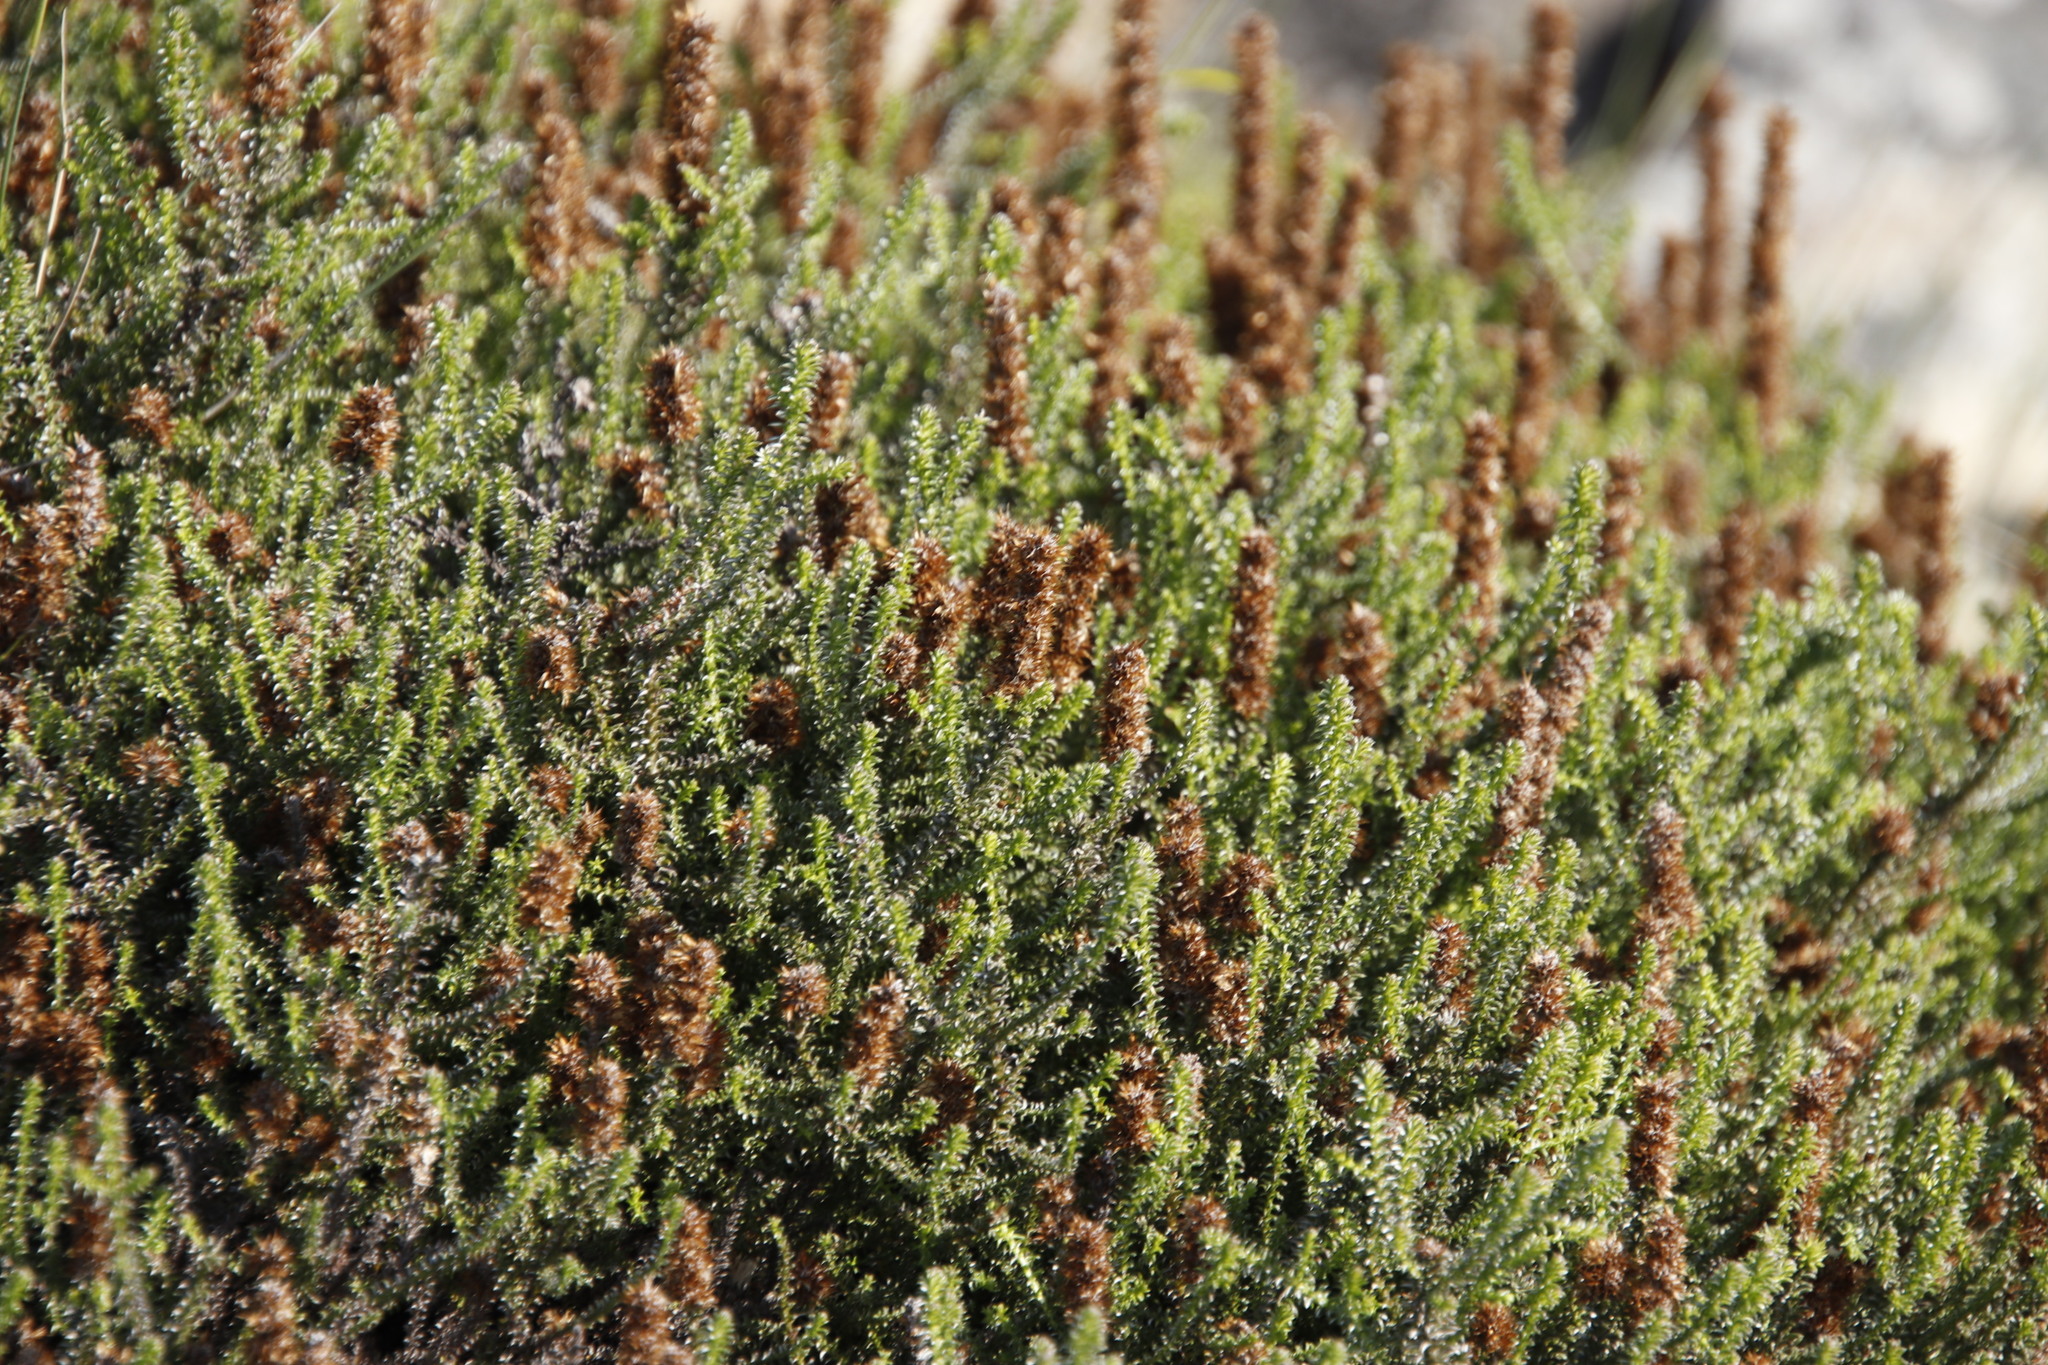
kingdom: Plantae
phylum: Tracheophyta
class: Magnoliopsida
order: Asterales
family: Asteraceae
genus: Seriphium
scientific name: Seriphium cinereum
